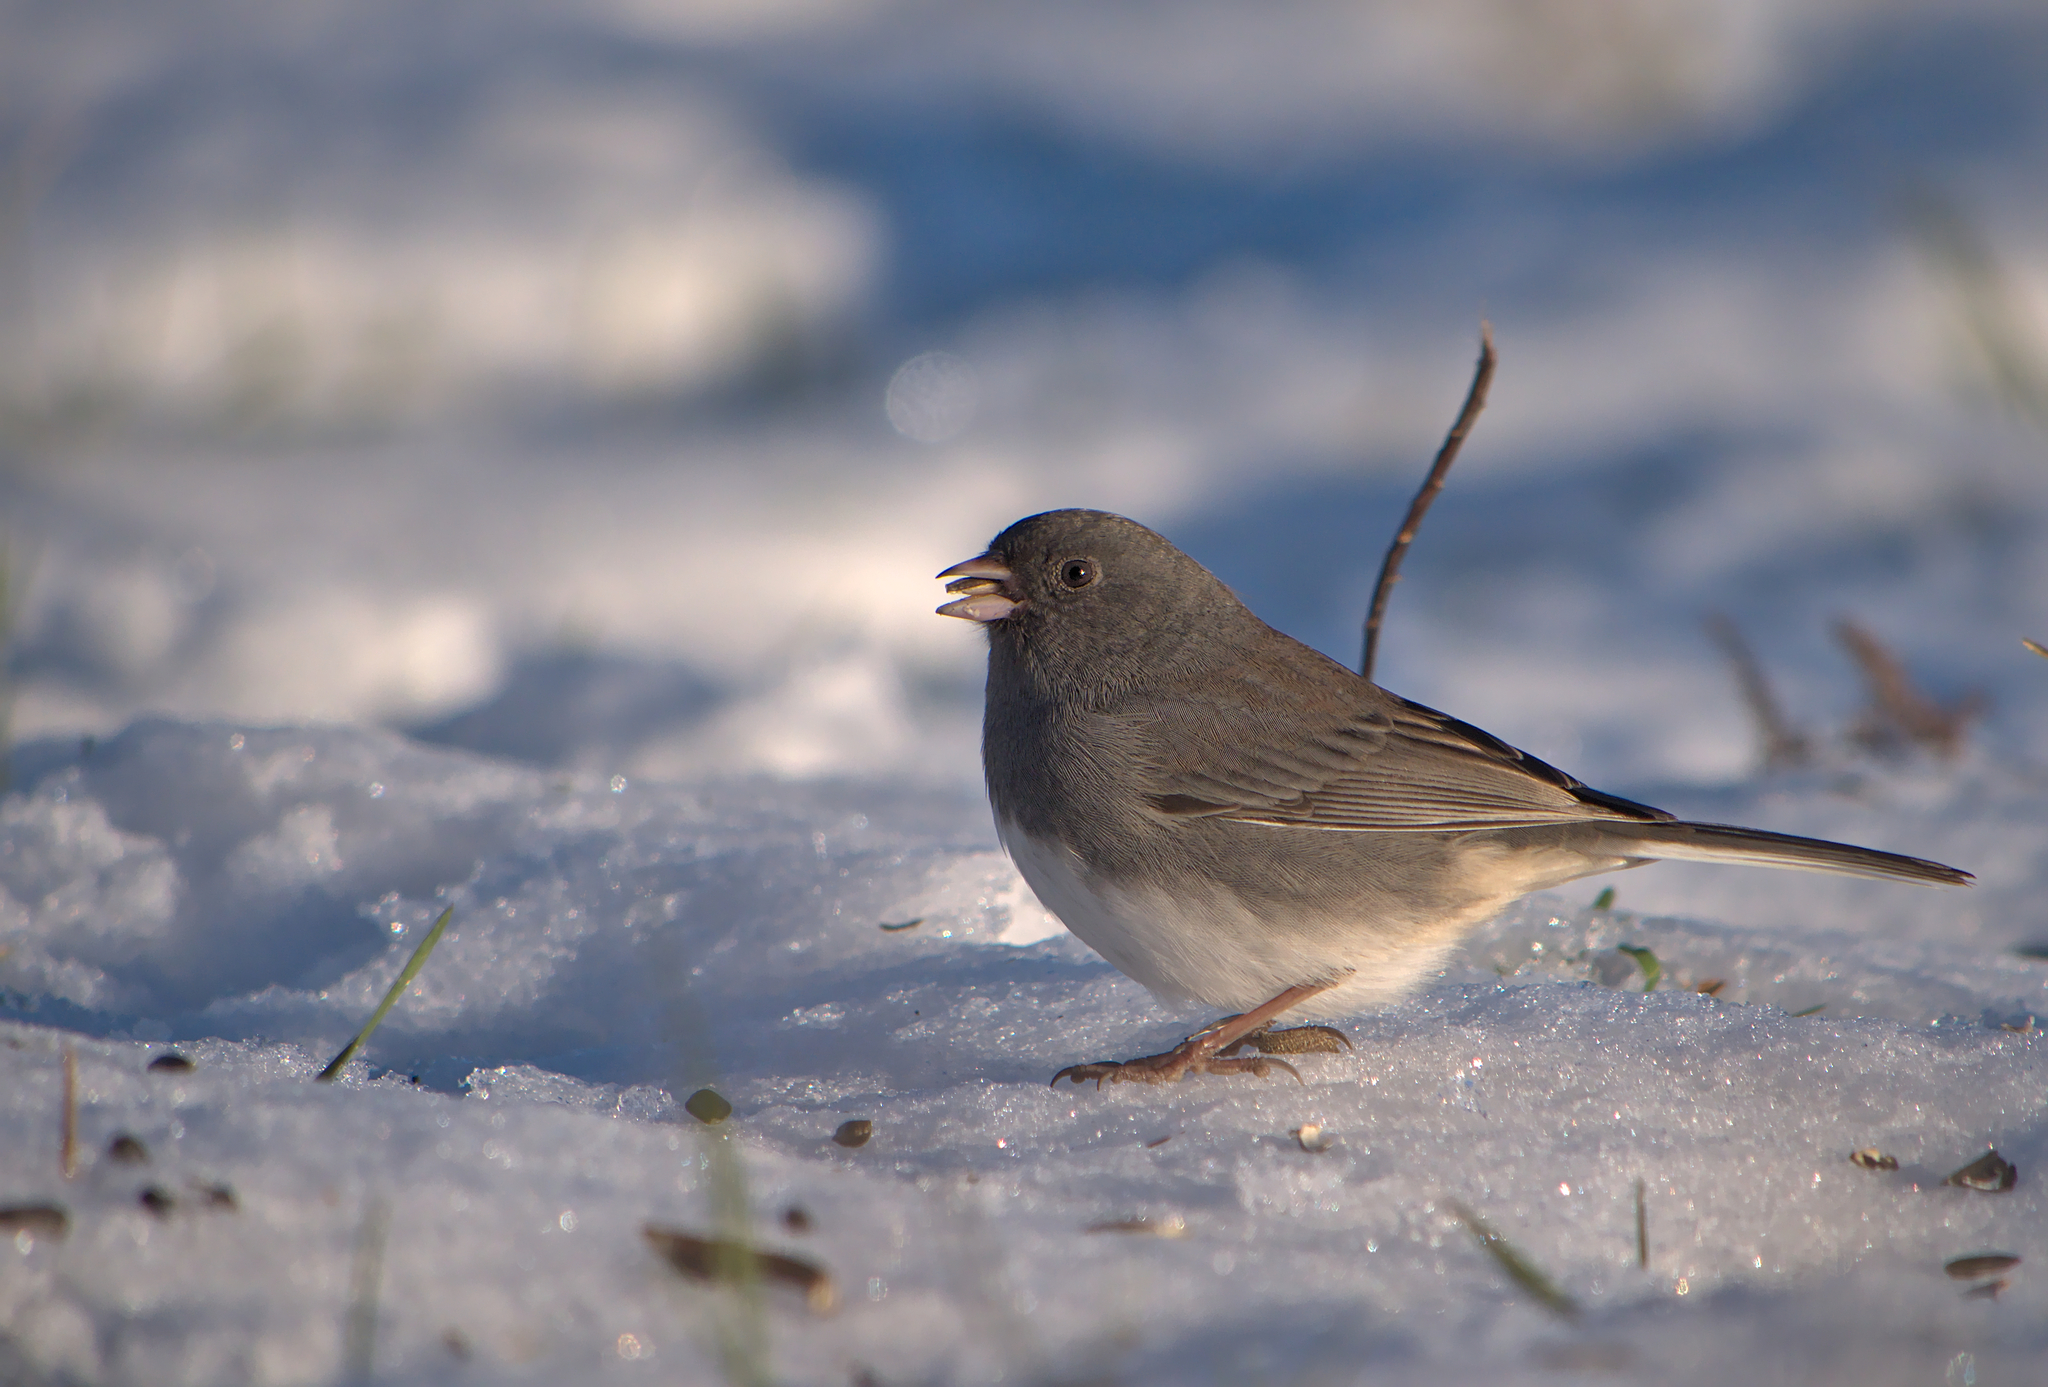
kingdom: Animalia
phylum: Chordata
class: Aves
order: Passeriformes
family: Passerellidae
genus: Junco
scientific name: Junco hyemalis
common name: Dark-eyed junco
